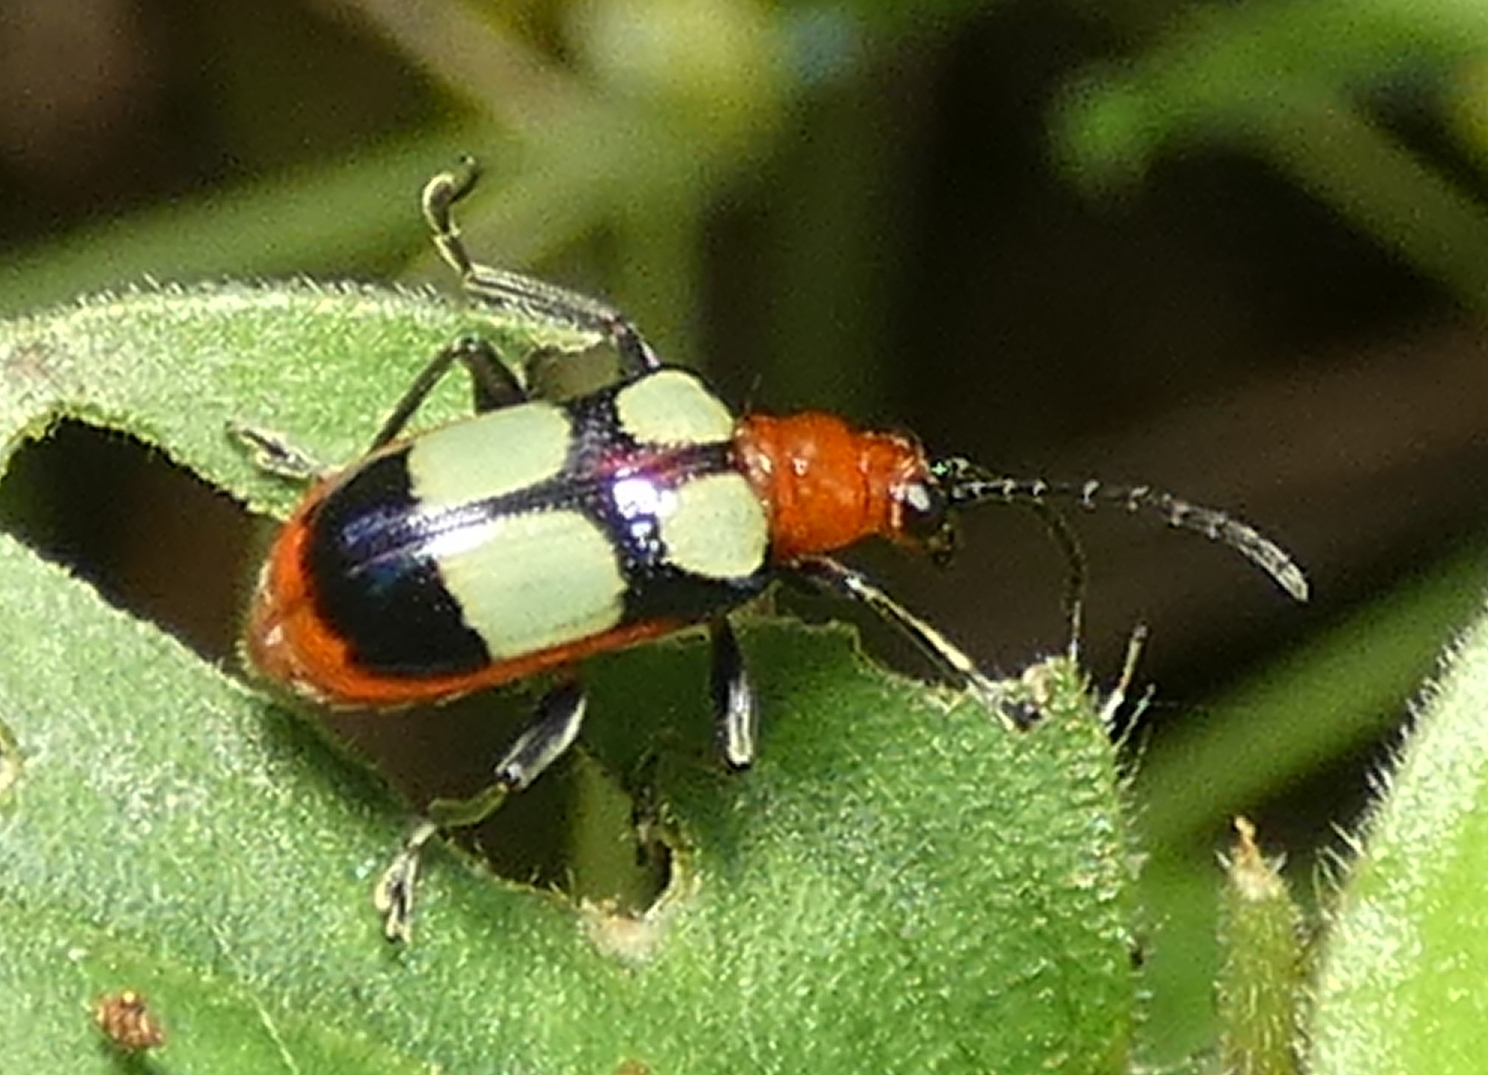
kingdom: Animalia
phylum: Arthropoda
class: Insecta
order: Coleoptera
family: Chrysomelidae
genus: Neolema
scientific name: Neolema
